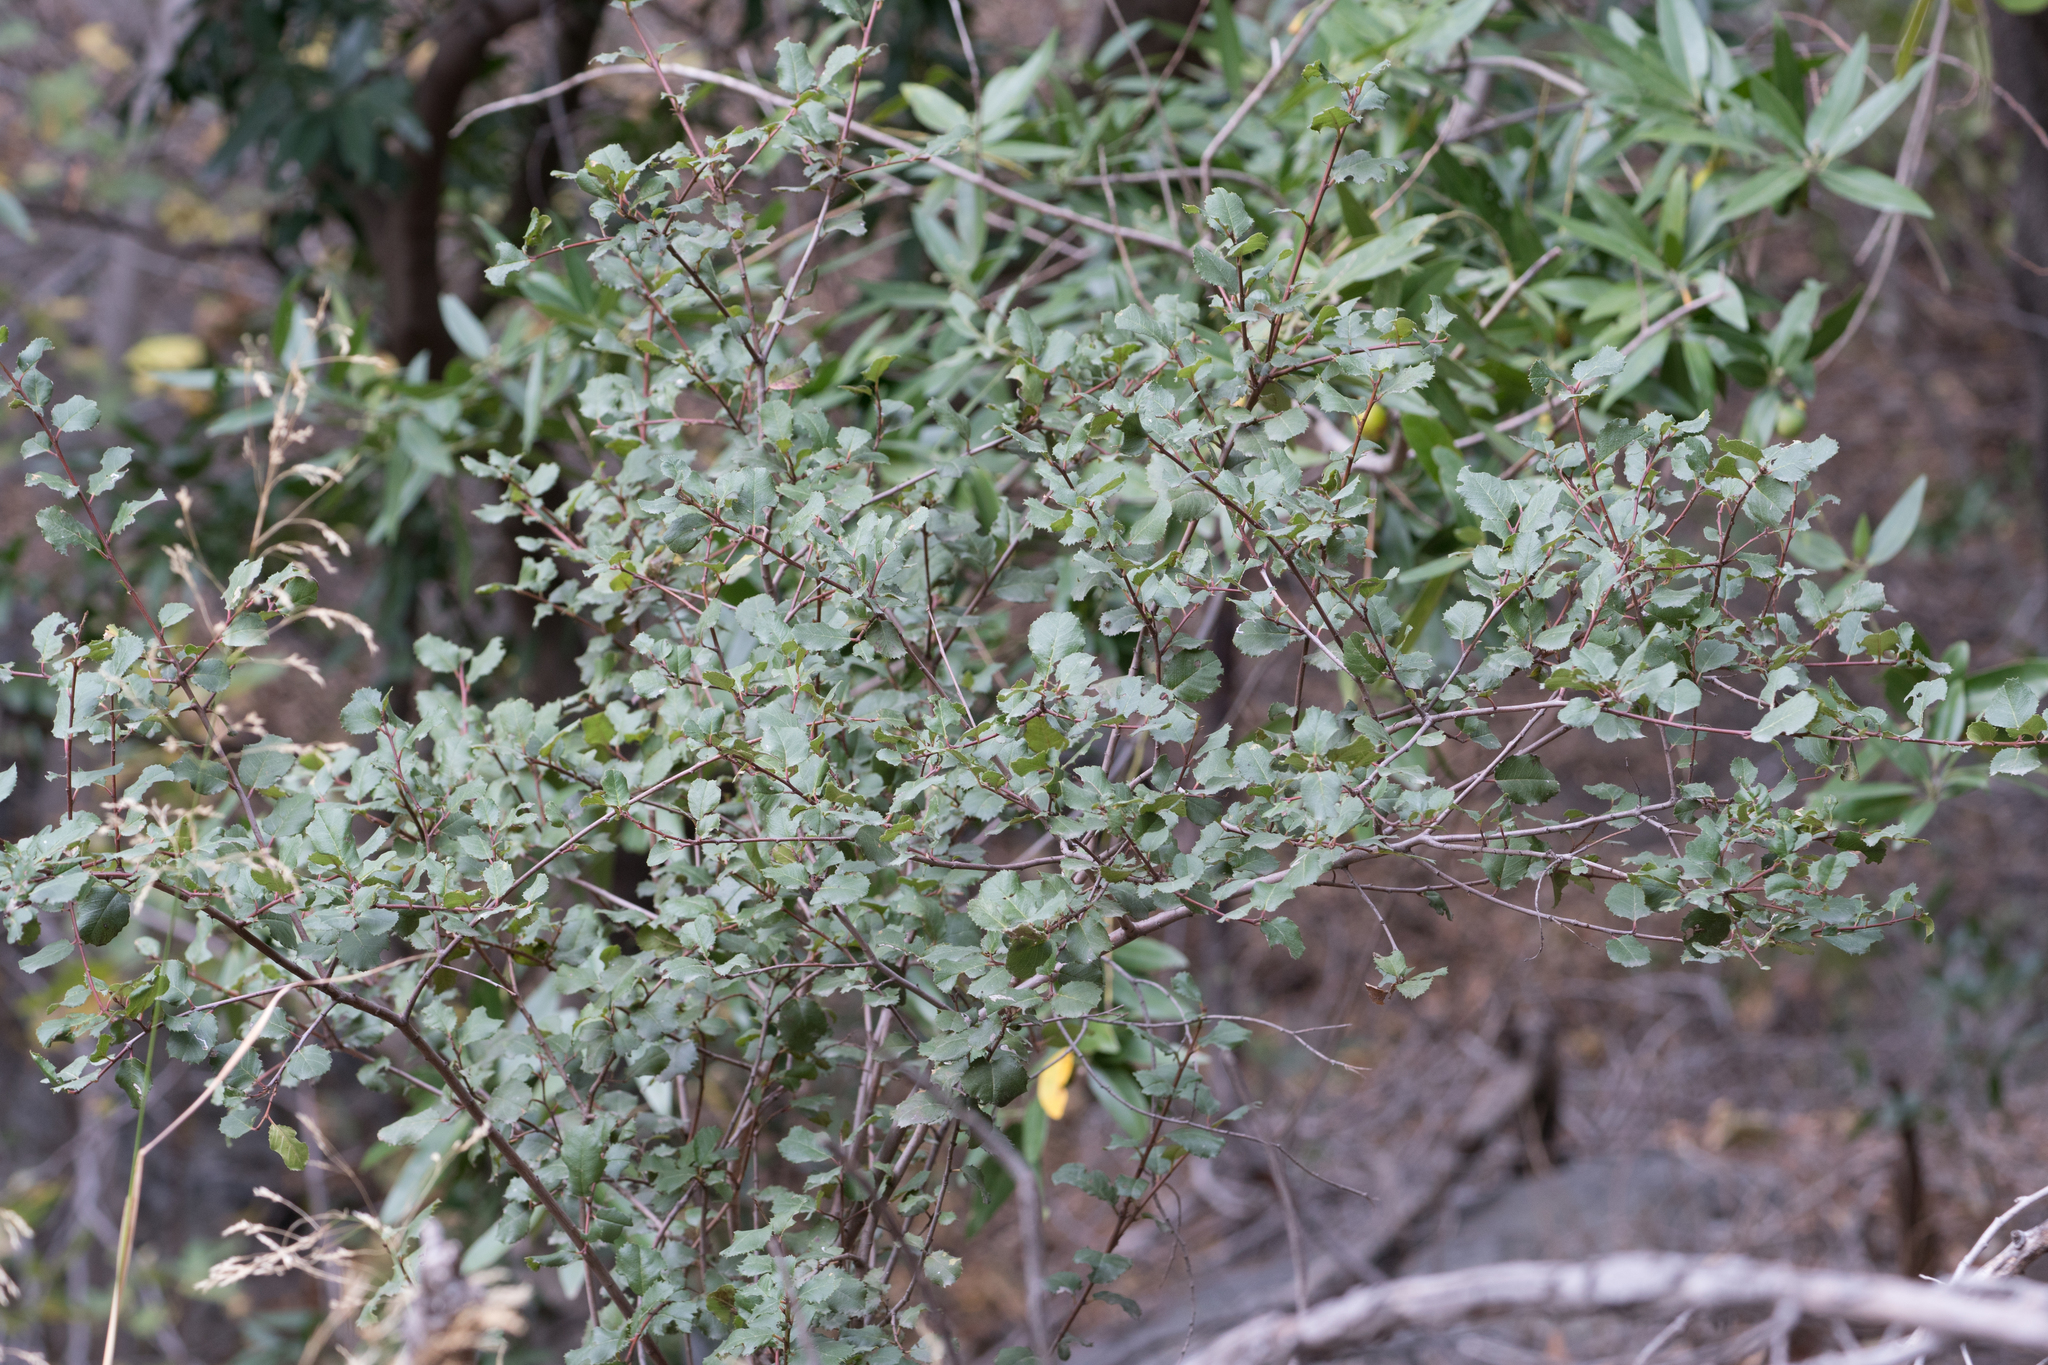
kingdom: Plantae
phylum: Tracheophyta
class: Magnoliopsida
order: Rosales
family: Rhamnaceae
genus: Endotropis
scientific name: Endotropis crocea
